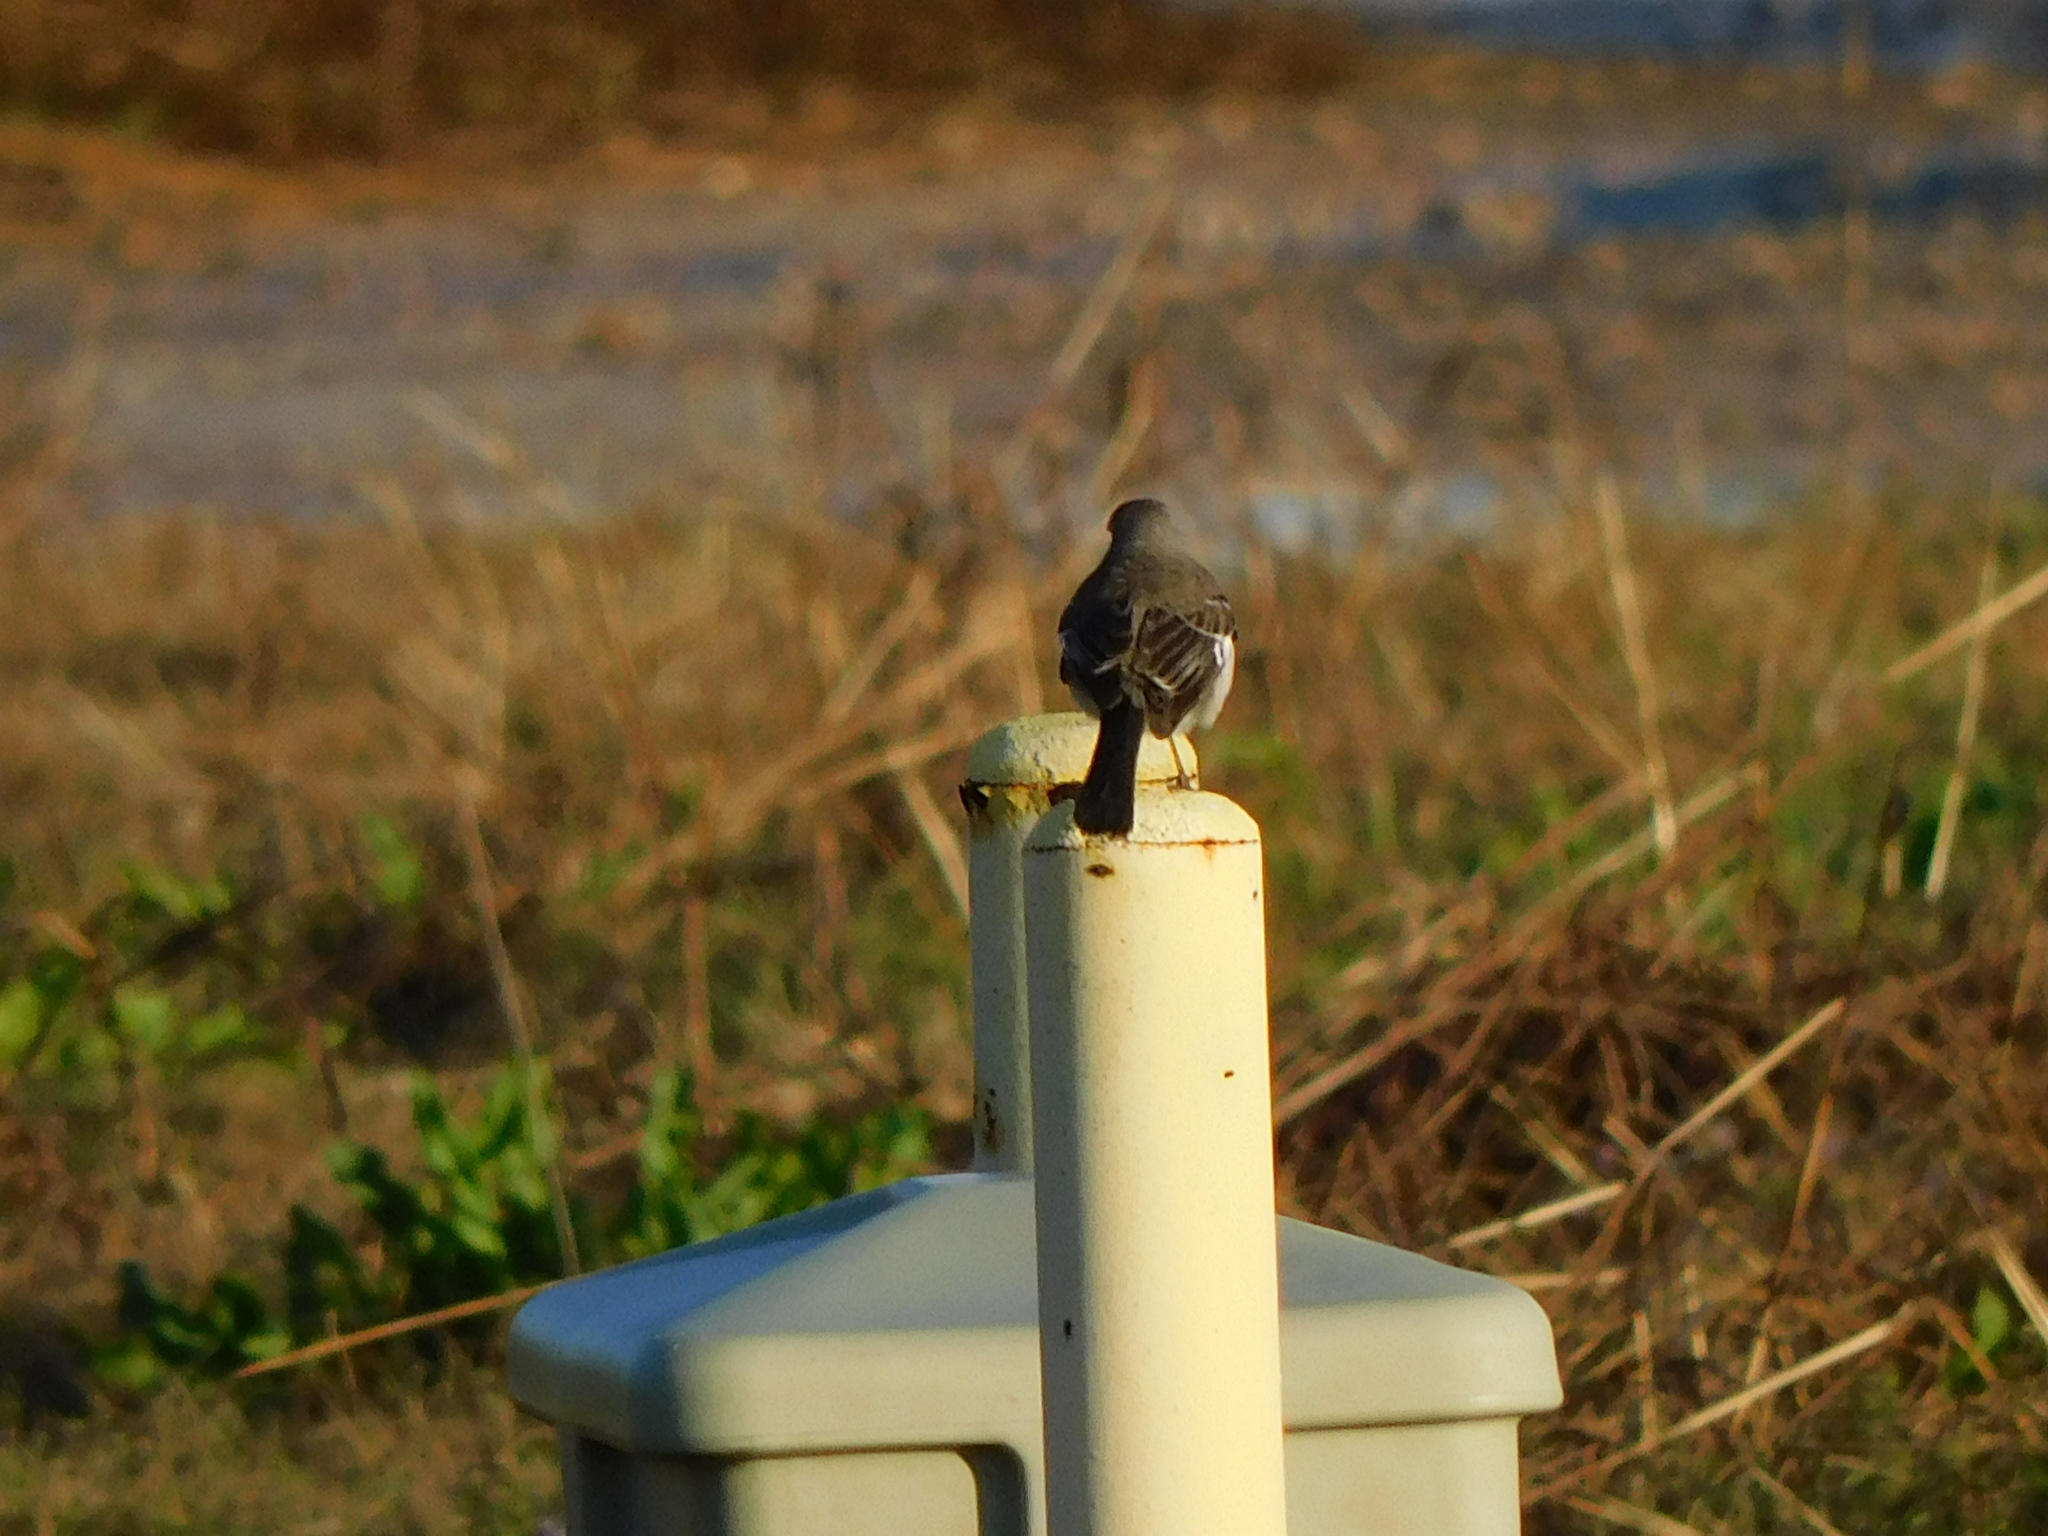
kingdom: Animalia
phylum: Chordata
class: Aves
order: Passeriformes
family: Mimidae
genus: Mimus
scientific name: Mimus polyglottos
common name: Northern mockingbird
